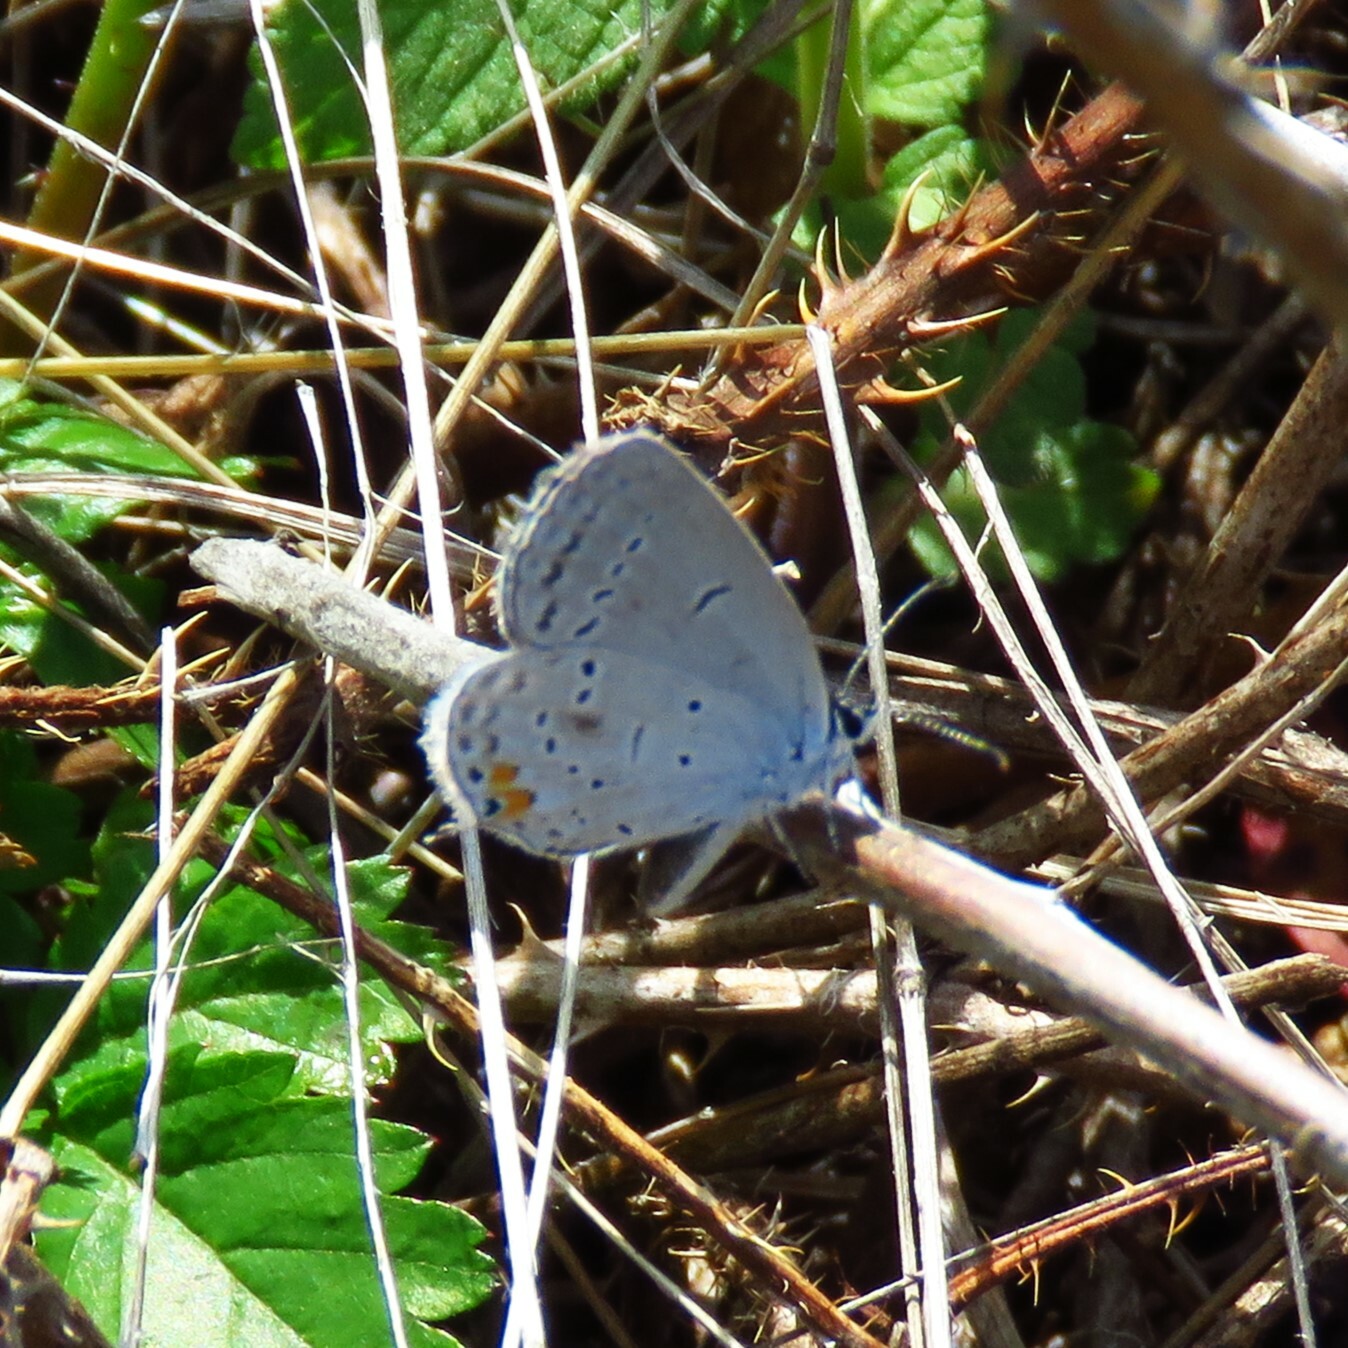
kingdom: Animalia
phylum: Arthropoda
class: Insecta
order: Lepidoptera
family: Lycaenidae
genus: Elkalyce
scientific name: Elkalyce comyntas
